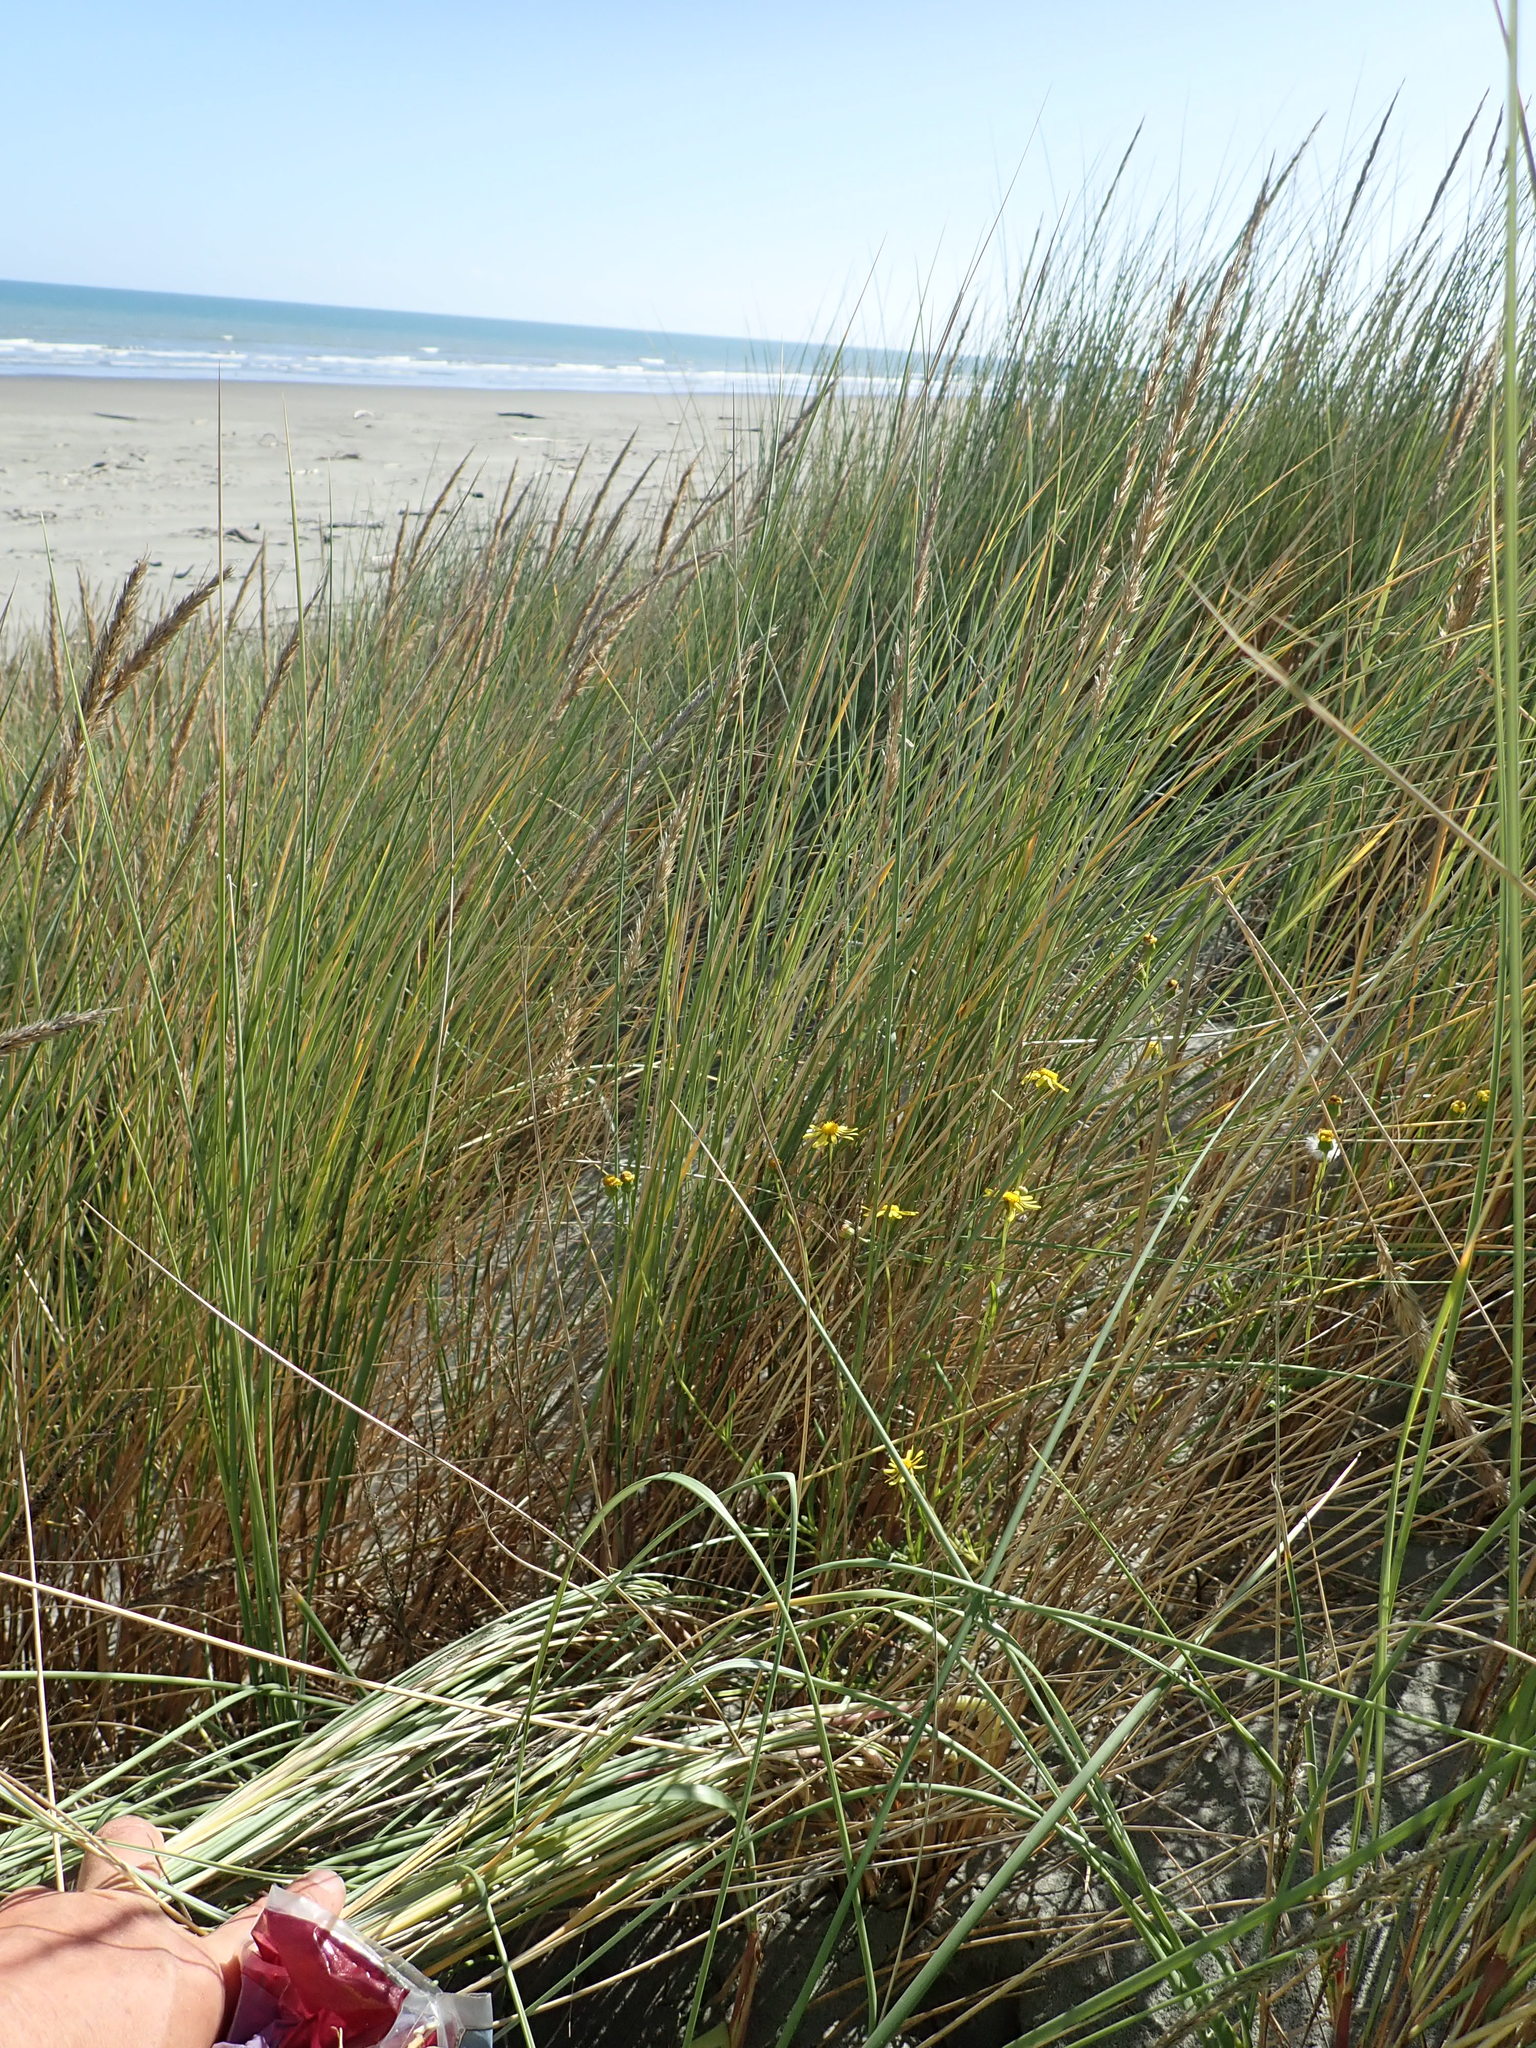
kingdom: Plantae
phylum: Tracheophyta
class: Magnoliopsida
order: Asterales
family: Asteraceae
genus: Senecio
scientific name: Senecio skirrhodon
